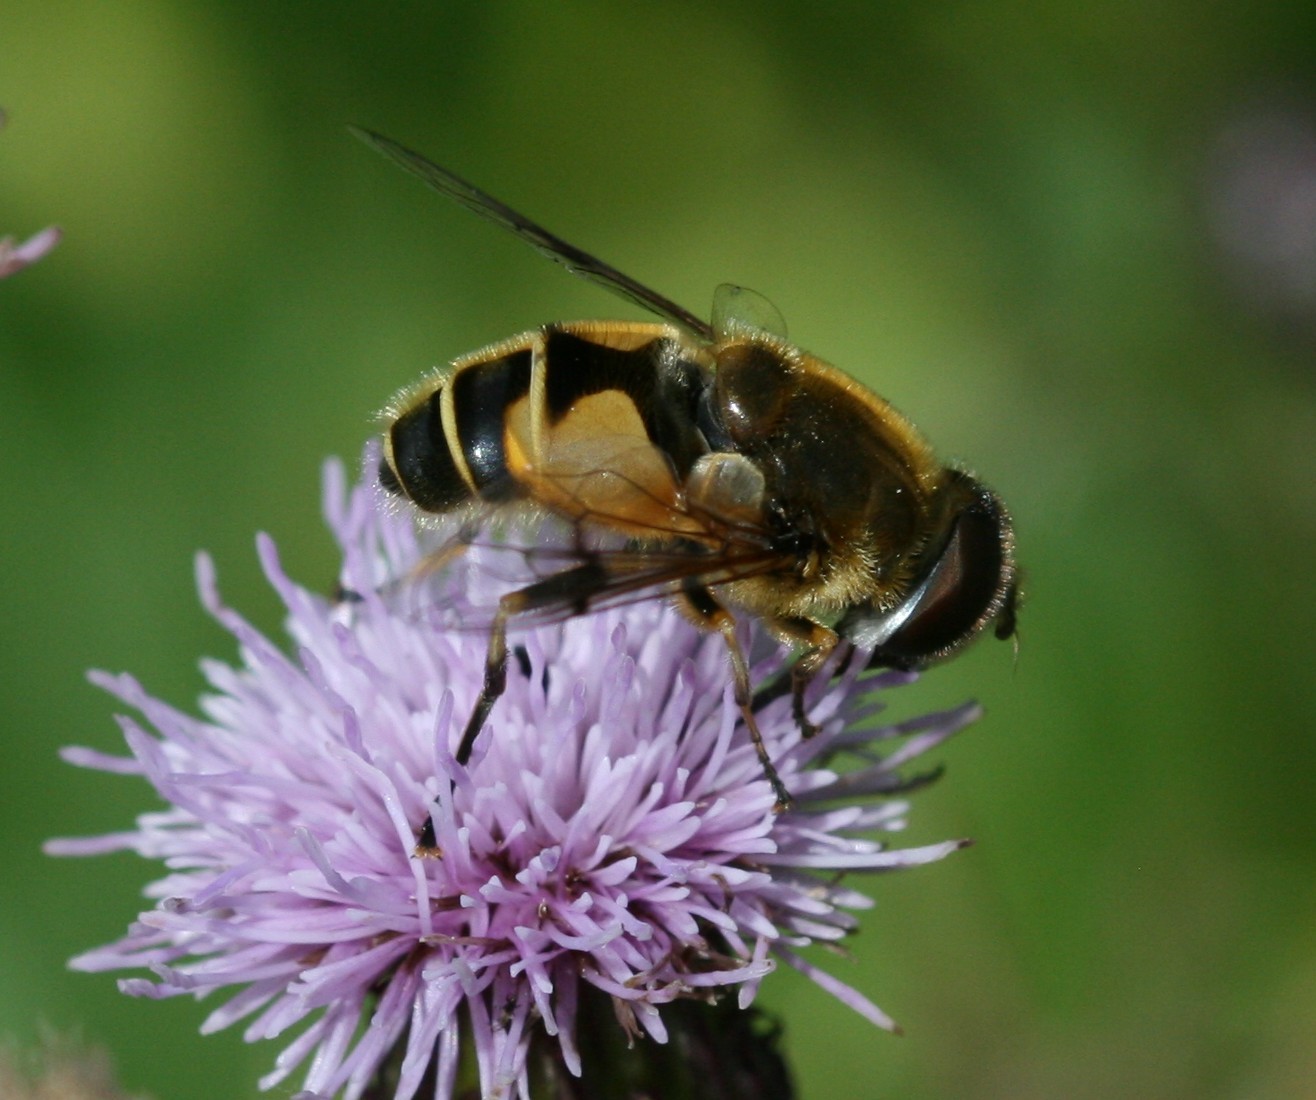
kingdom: Animalia
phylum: Arthropoda
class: Insecta
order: Diptera
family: Syrphidae
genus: Cheilosia
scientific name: Cheilosia morio
